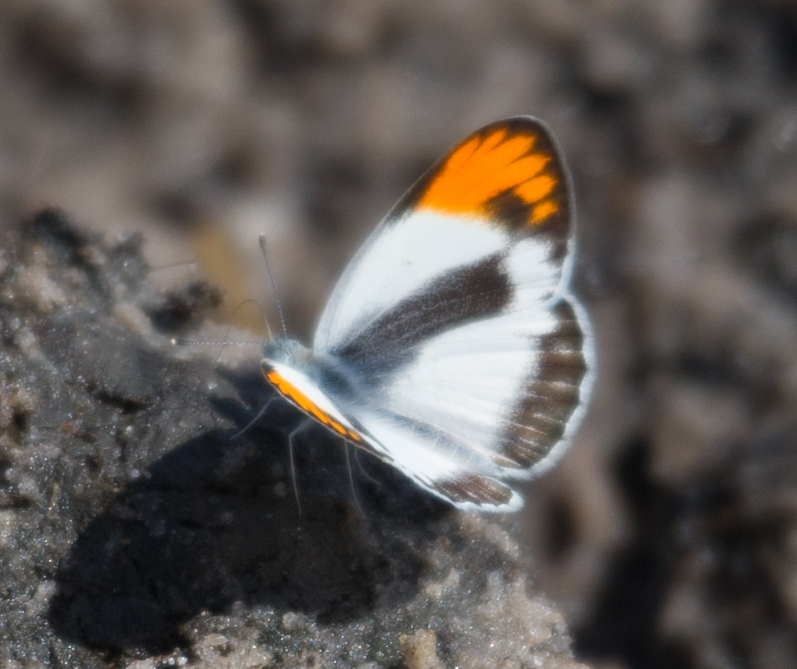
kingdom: Animalia
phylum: Arthropoda
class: Insecta
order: Lepidoptera
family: Pieridae
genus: Colotis
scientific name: Colotis evagore
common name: Desert orange-tip
